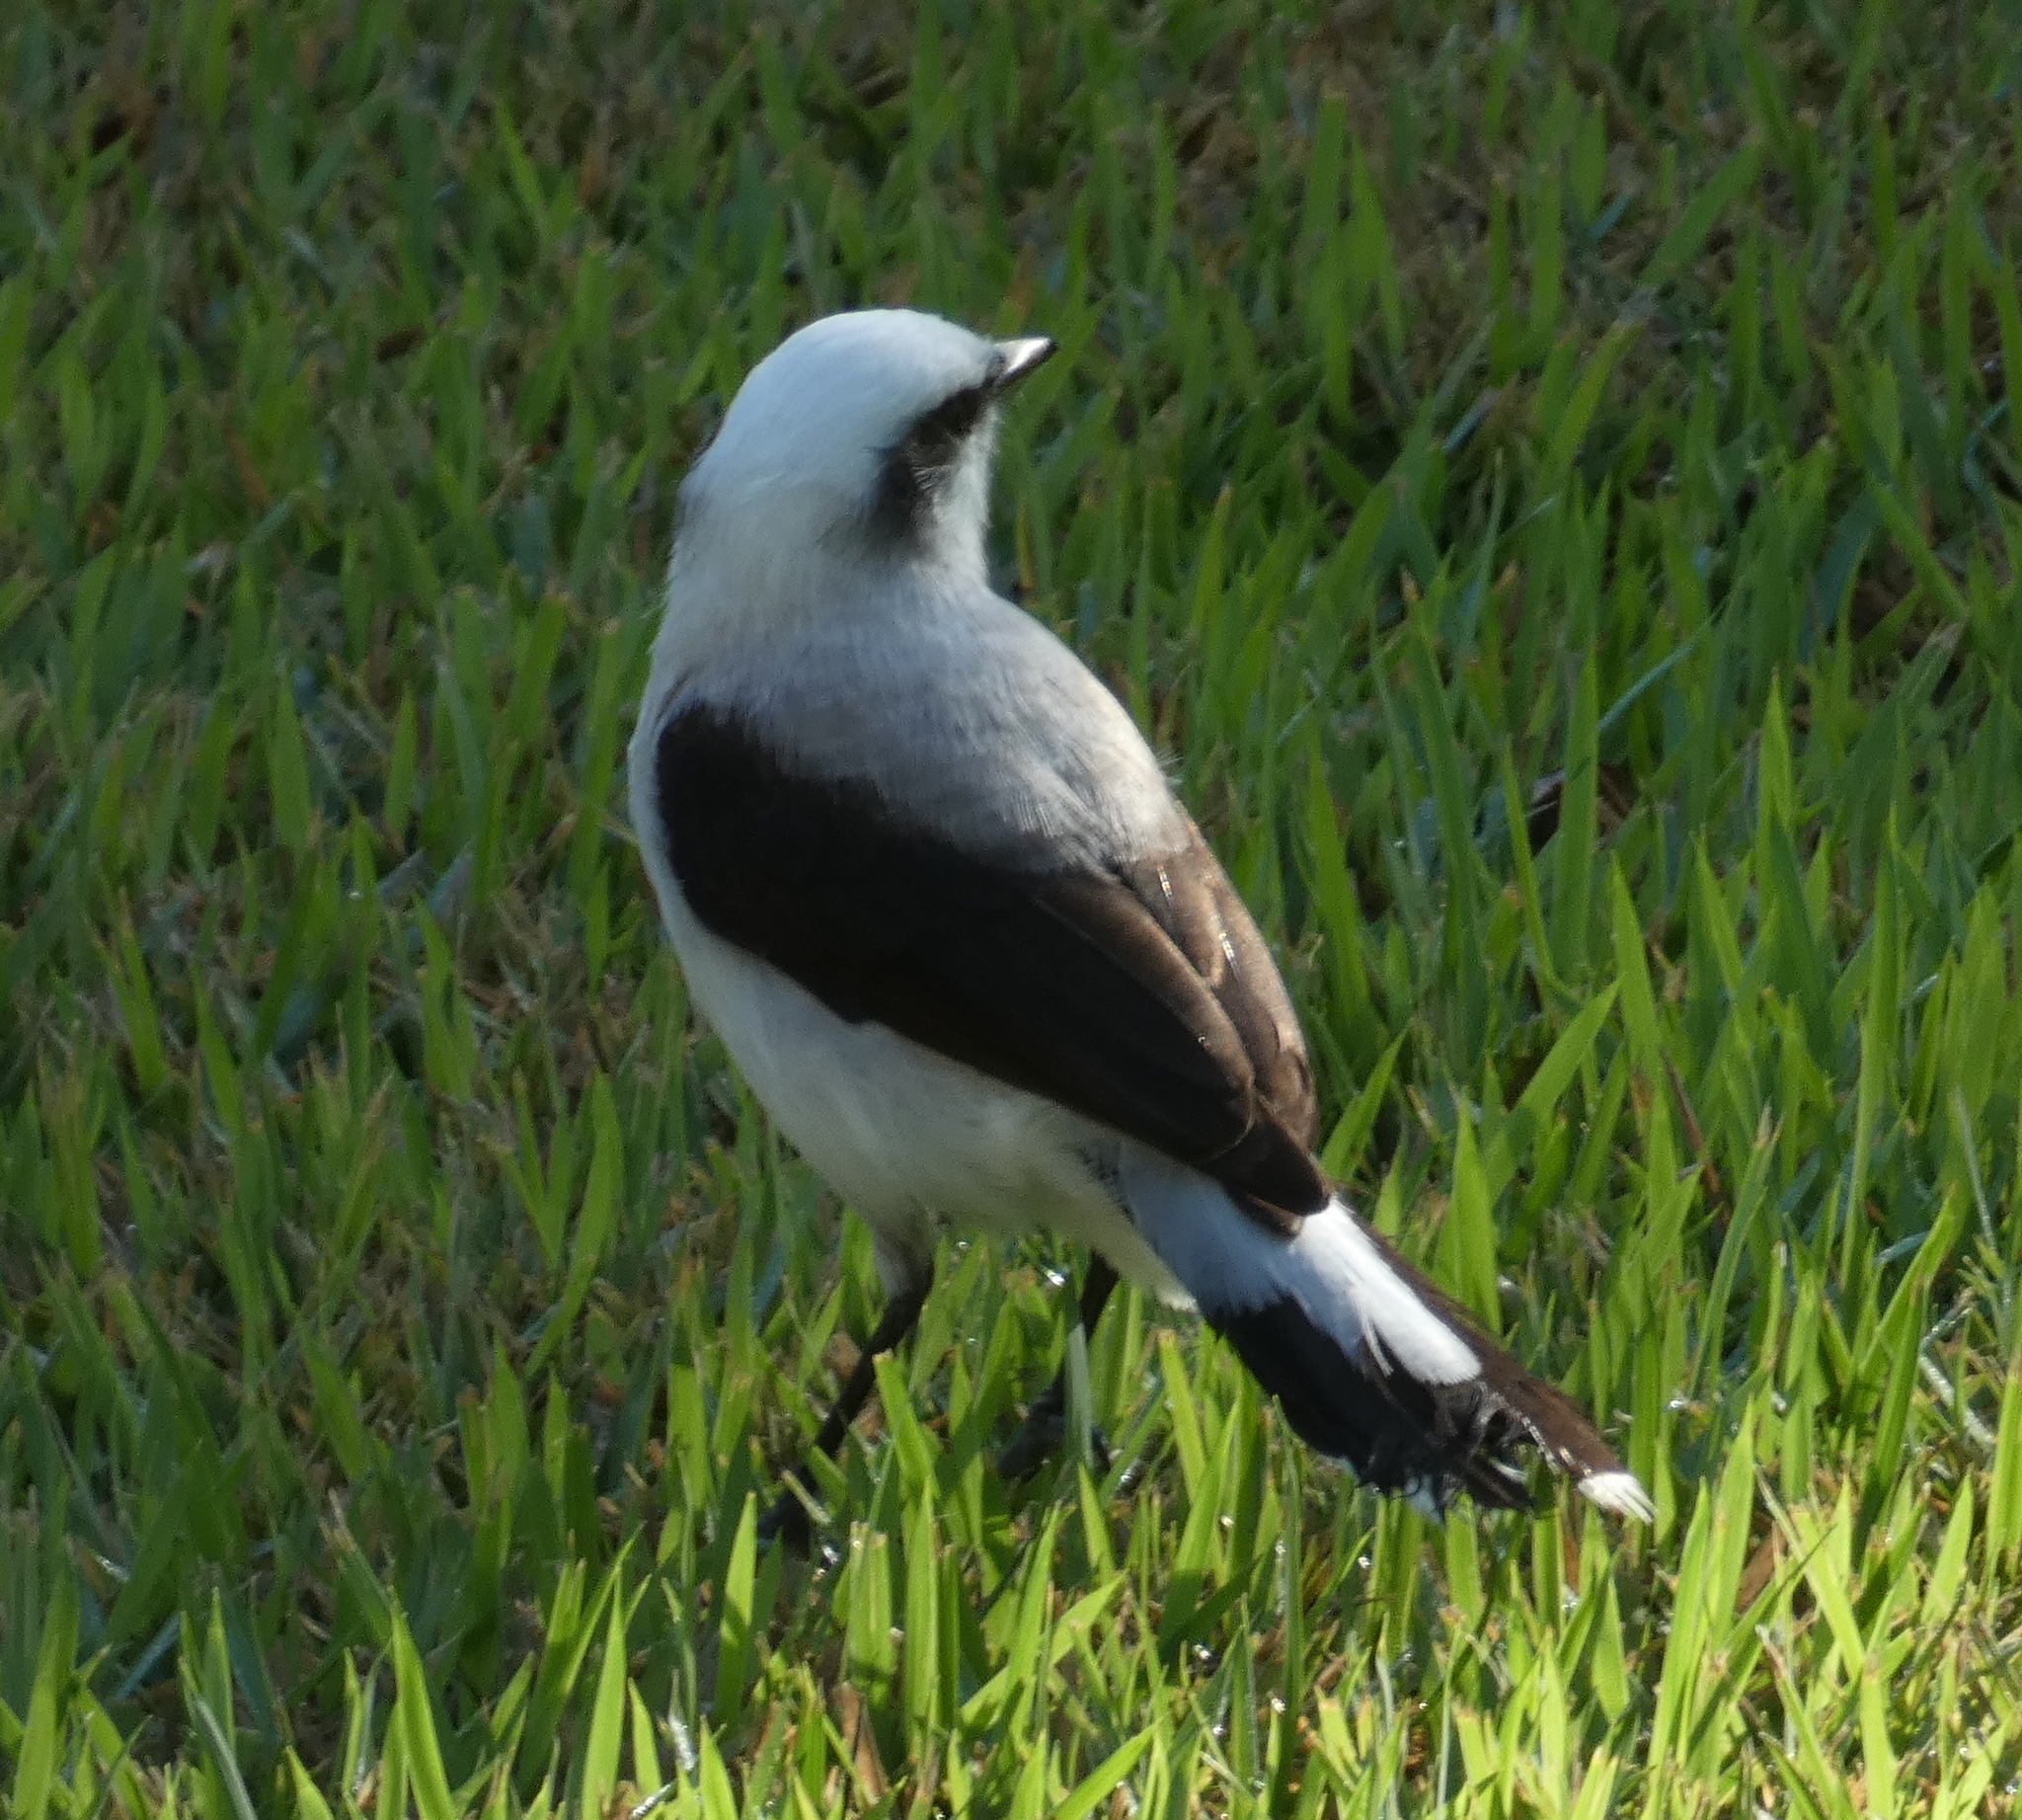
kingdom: Animalia
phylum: Chordata
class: Aves
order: Passeriformes
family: Tyrannidae
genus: Fluvicola
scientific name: Fluvicola nengeta
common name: Masked water tyrant
